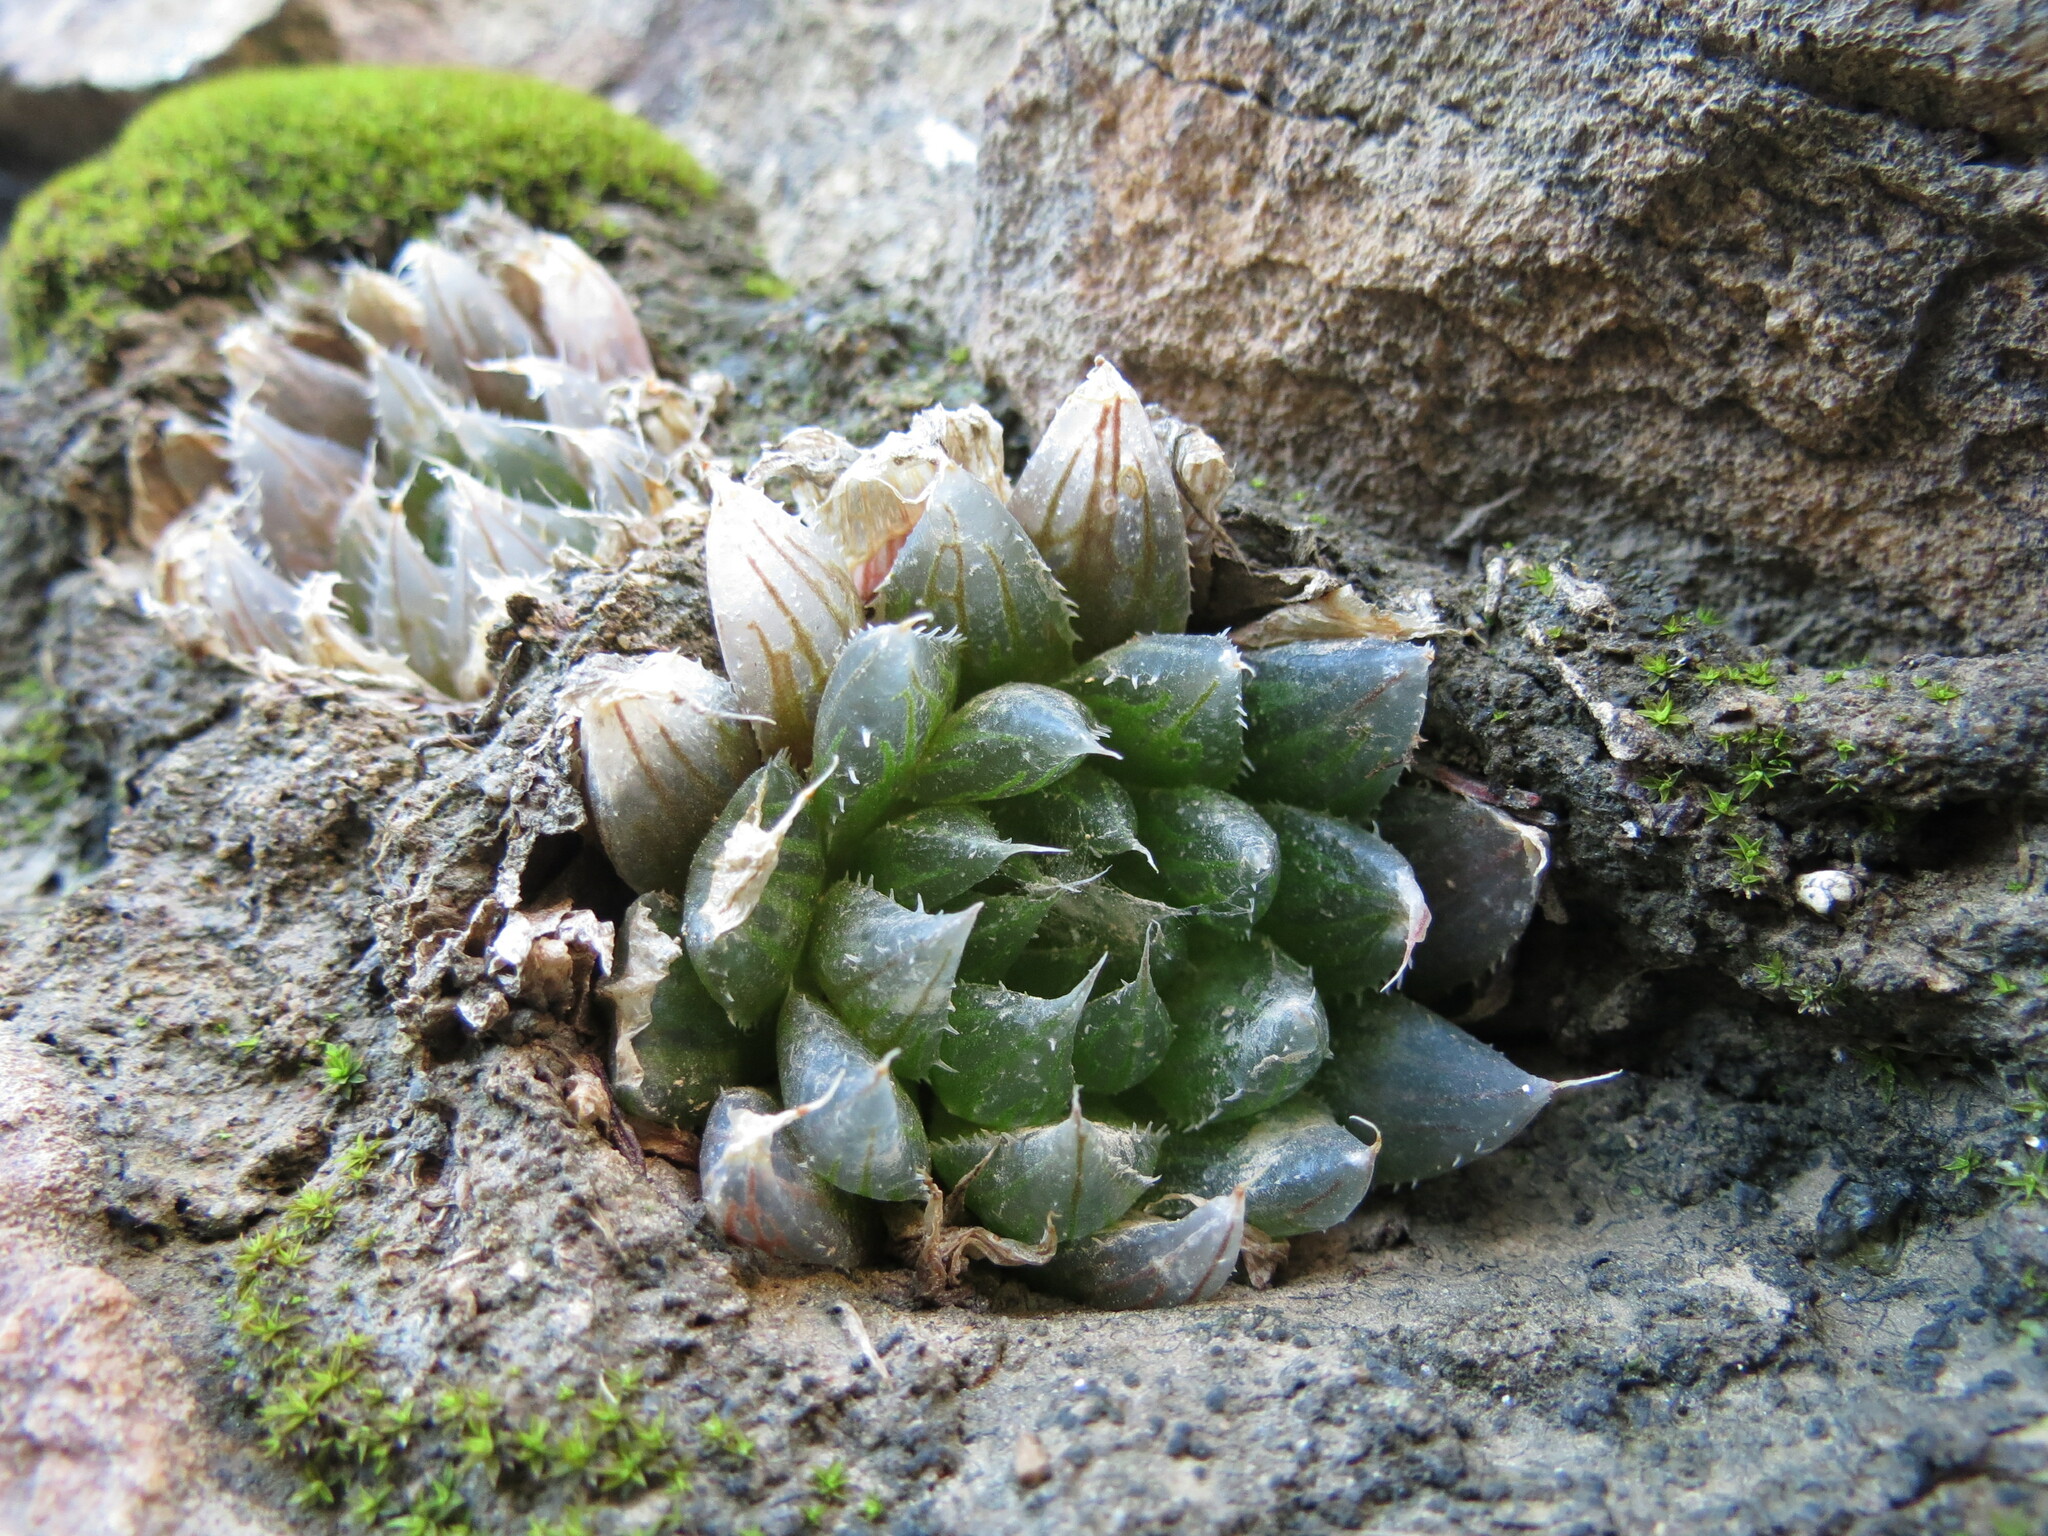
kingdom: Plantae
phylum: Tracheophyta
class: Liliopsida
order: Asparagales
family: Asphodelaceae
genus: Haworthia
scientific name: Haworthia mucronata
